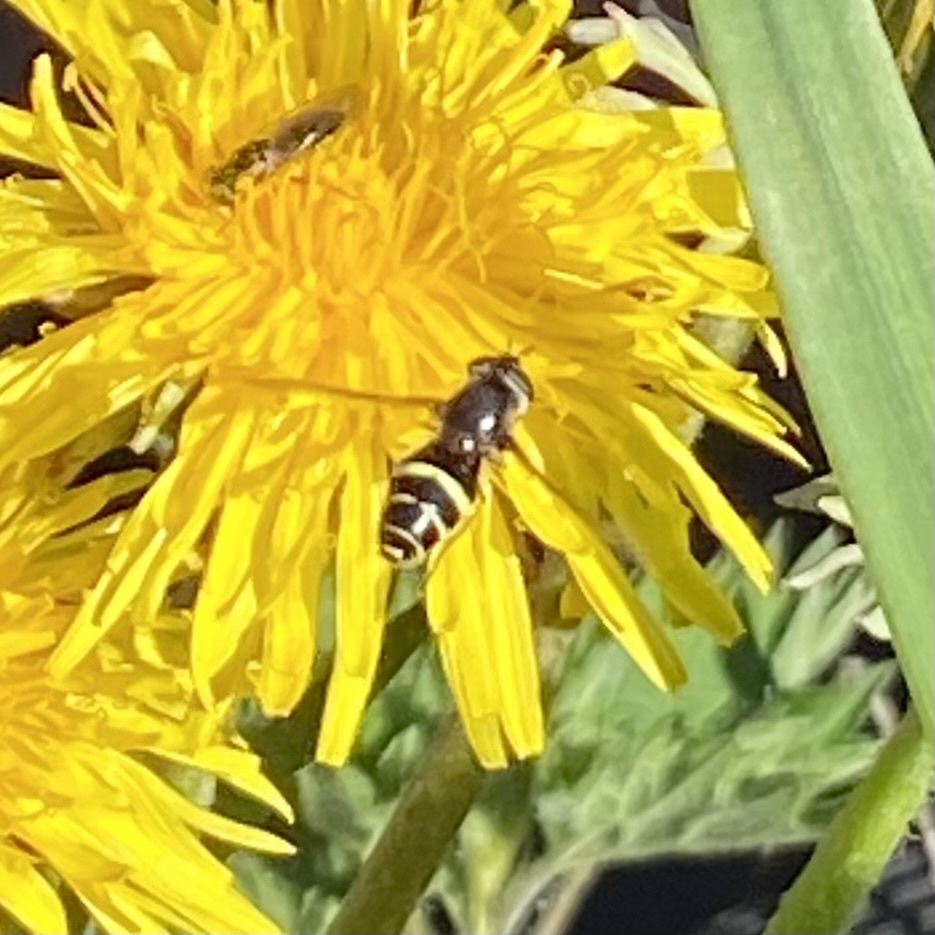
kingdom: Animalia
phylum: Arthropoda
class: Insecta
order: Diptera
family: Syrphidae
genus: Dasysyrphus
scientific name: Dasysyrphus tricinctus
